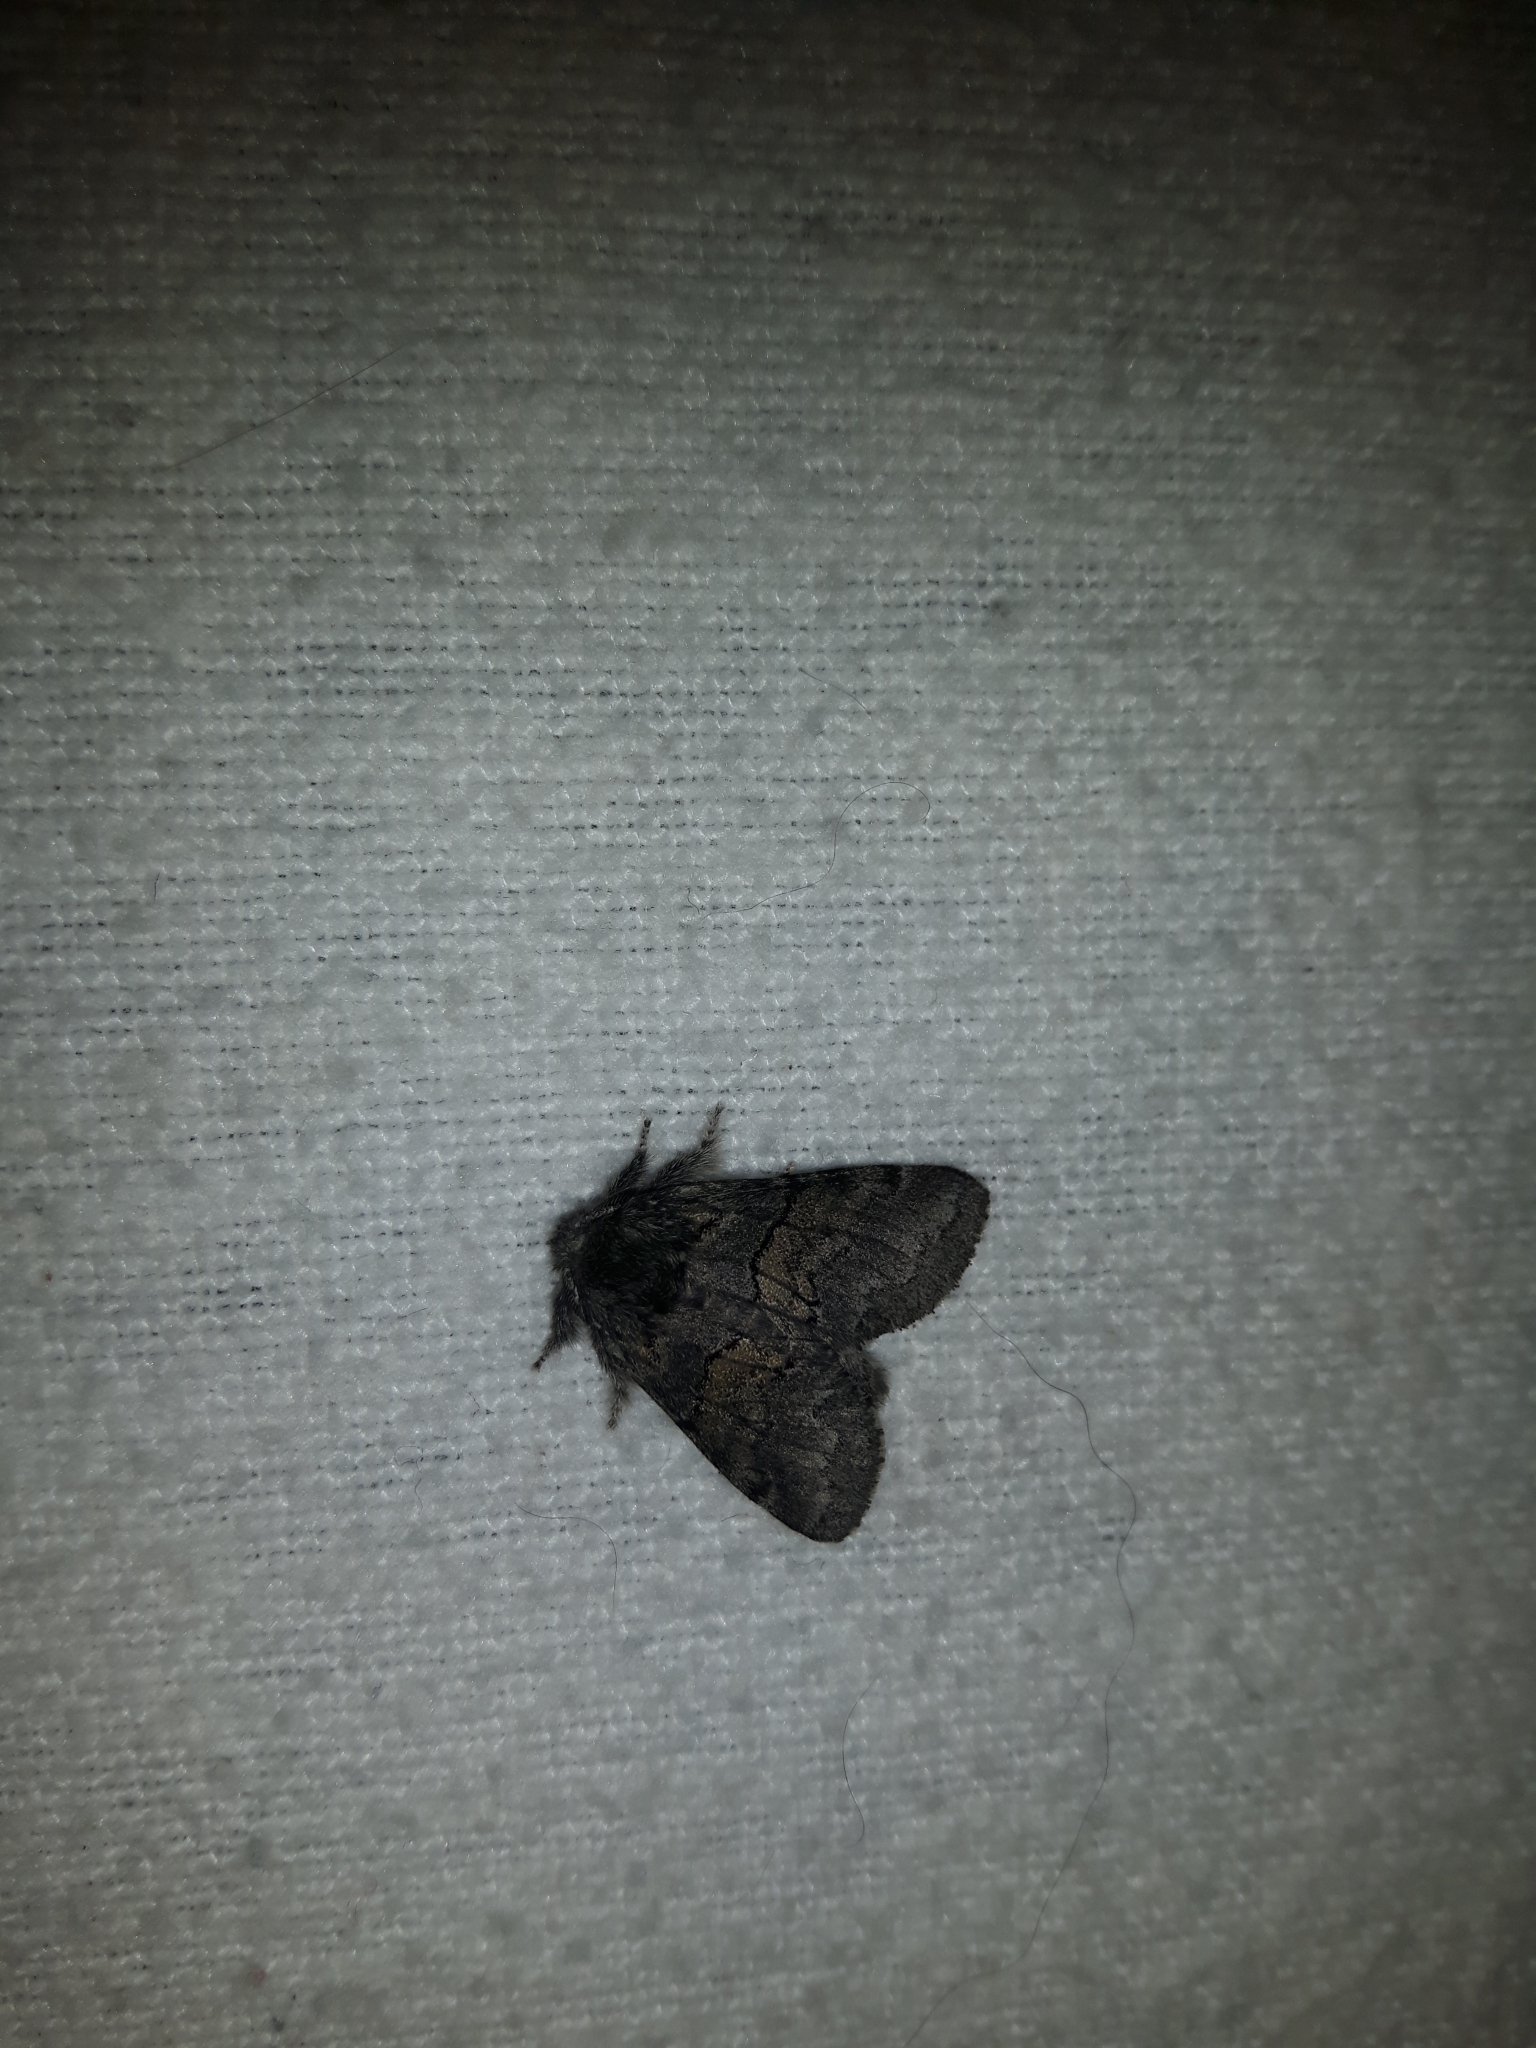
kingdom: Animalia
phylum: Arthropoda
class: Insecta
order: Lepidoptera
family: Notodontidae
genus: Gluphisia
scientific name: Gluphisia septentrionis
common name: Common gluphisia
